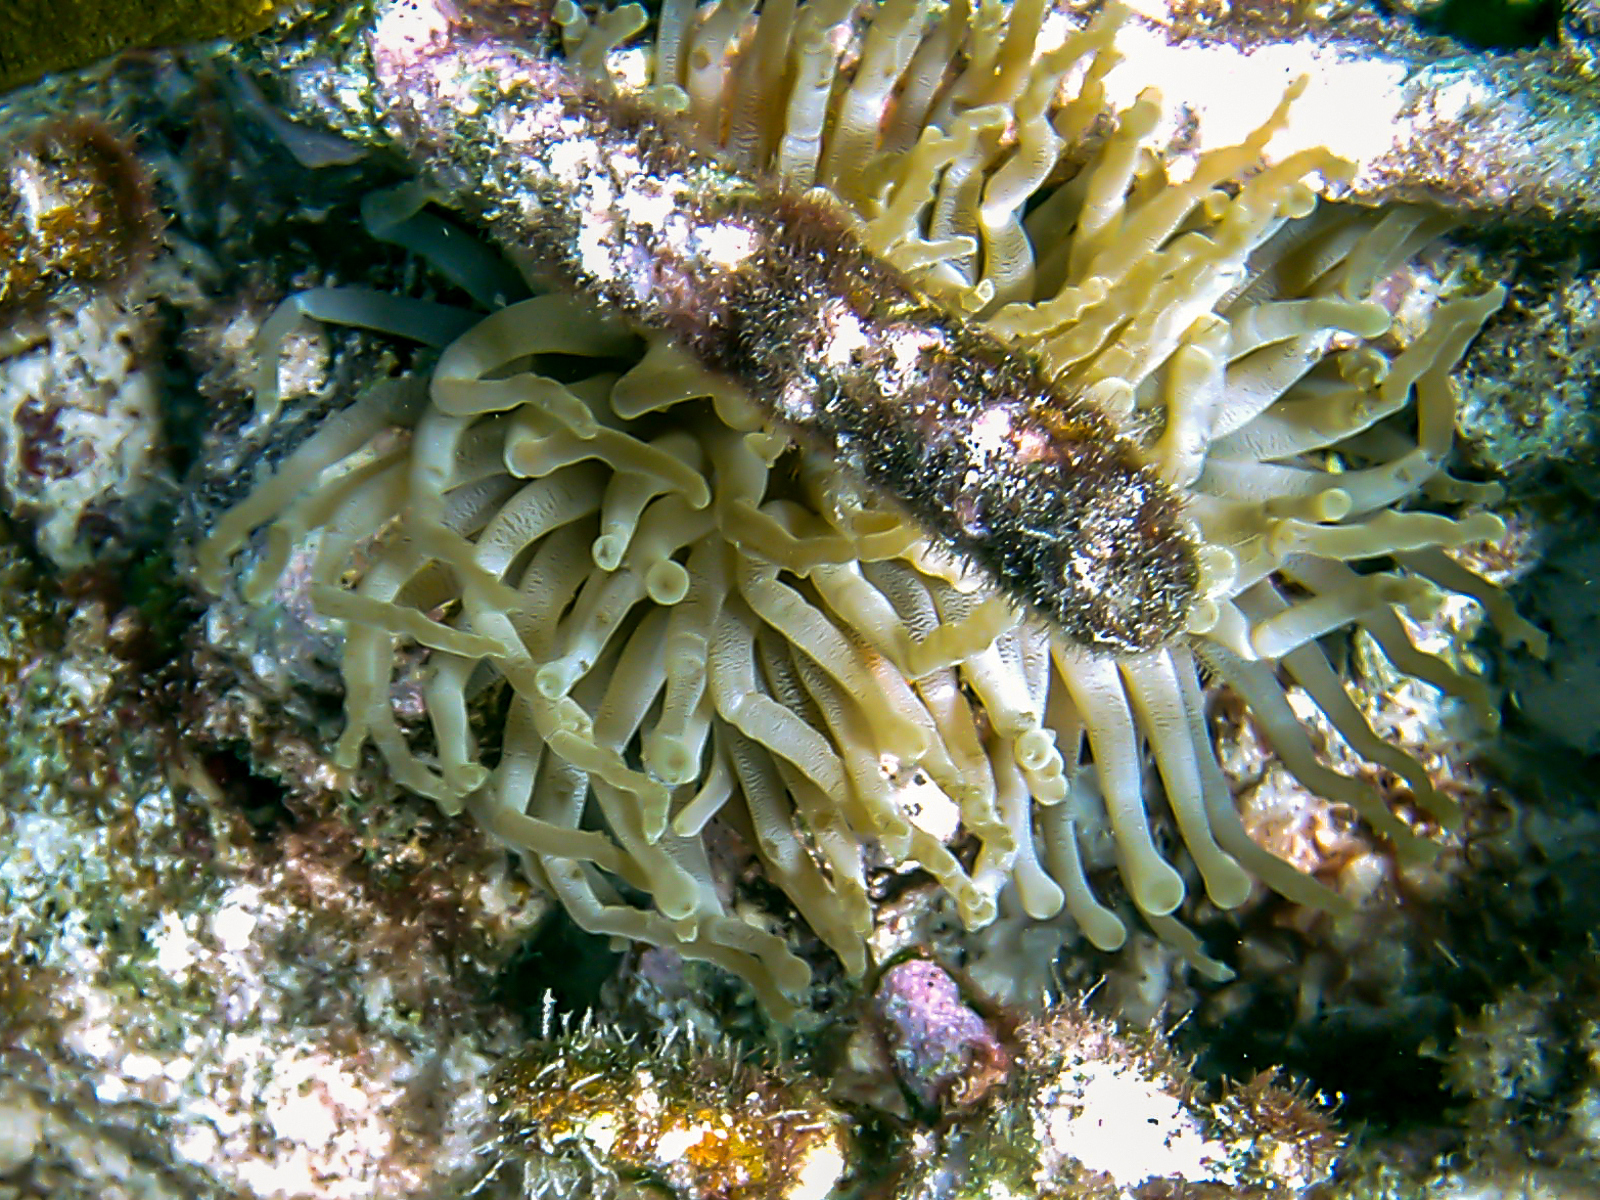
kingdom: Animalia
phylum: Cnidaria
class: Anthozoa
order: Actiniaria
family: Actiniidae
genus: Condylactis
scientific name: Condylactis gigantea
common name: Giant caribbean anemone
